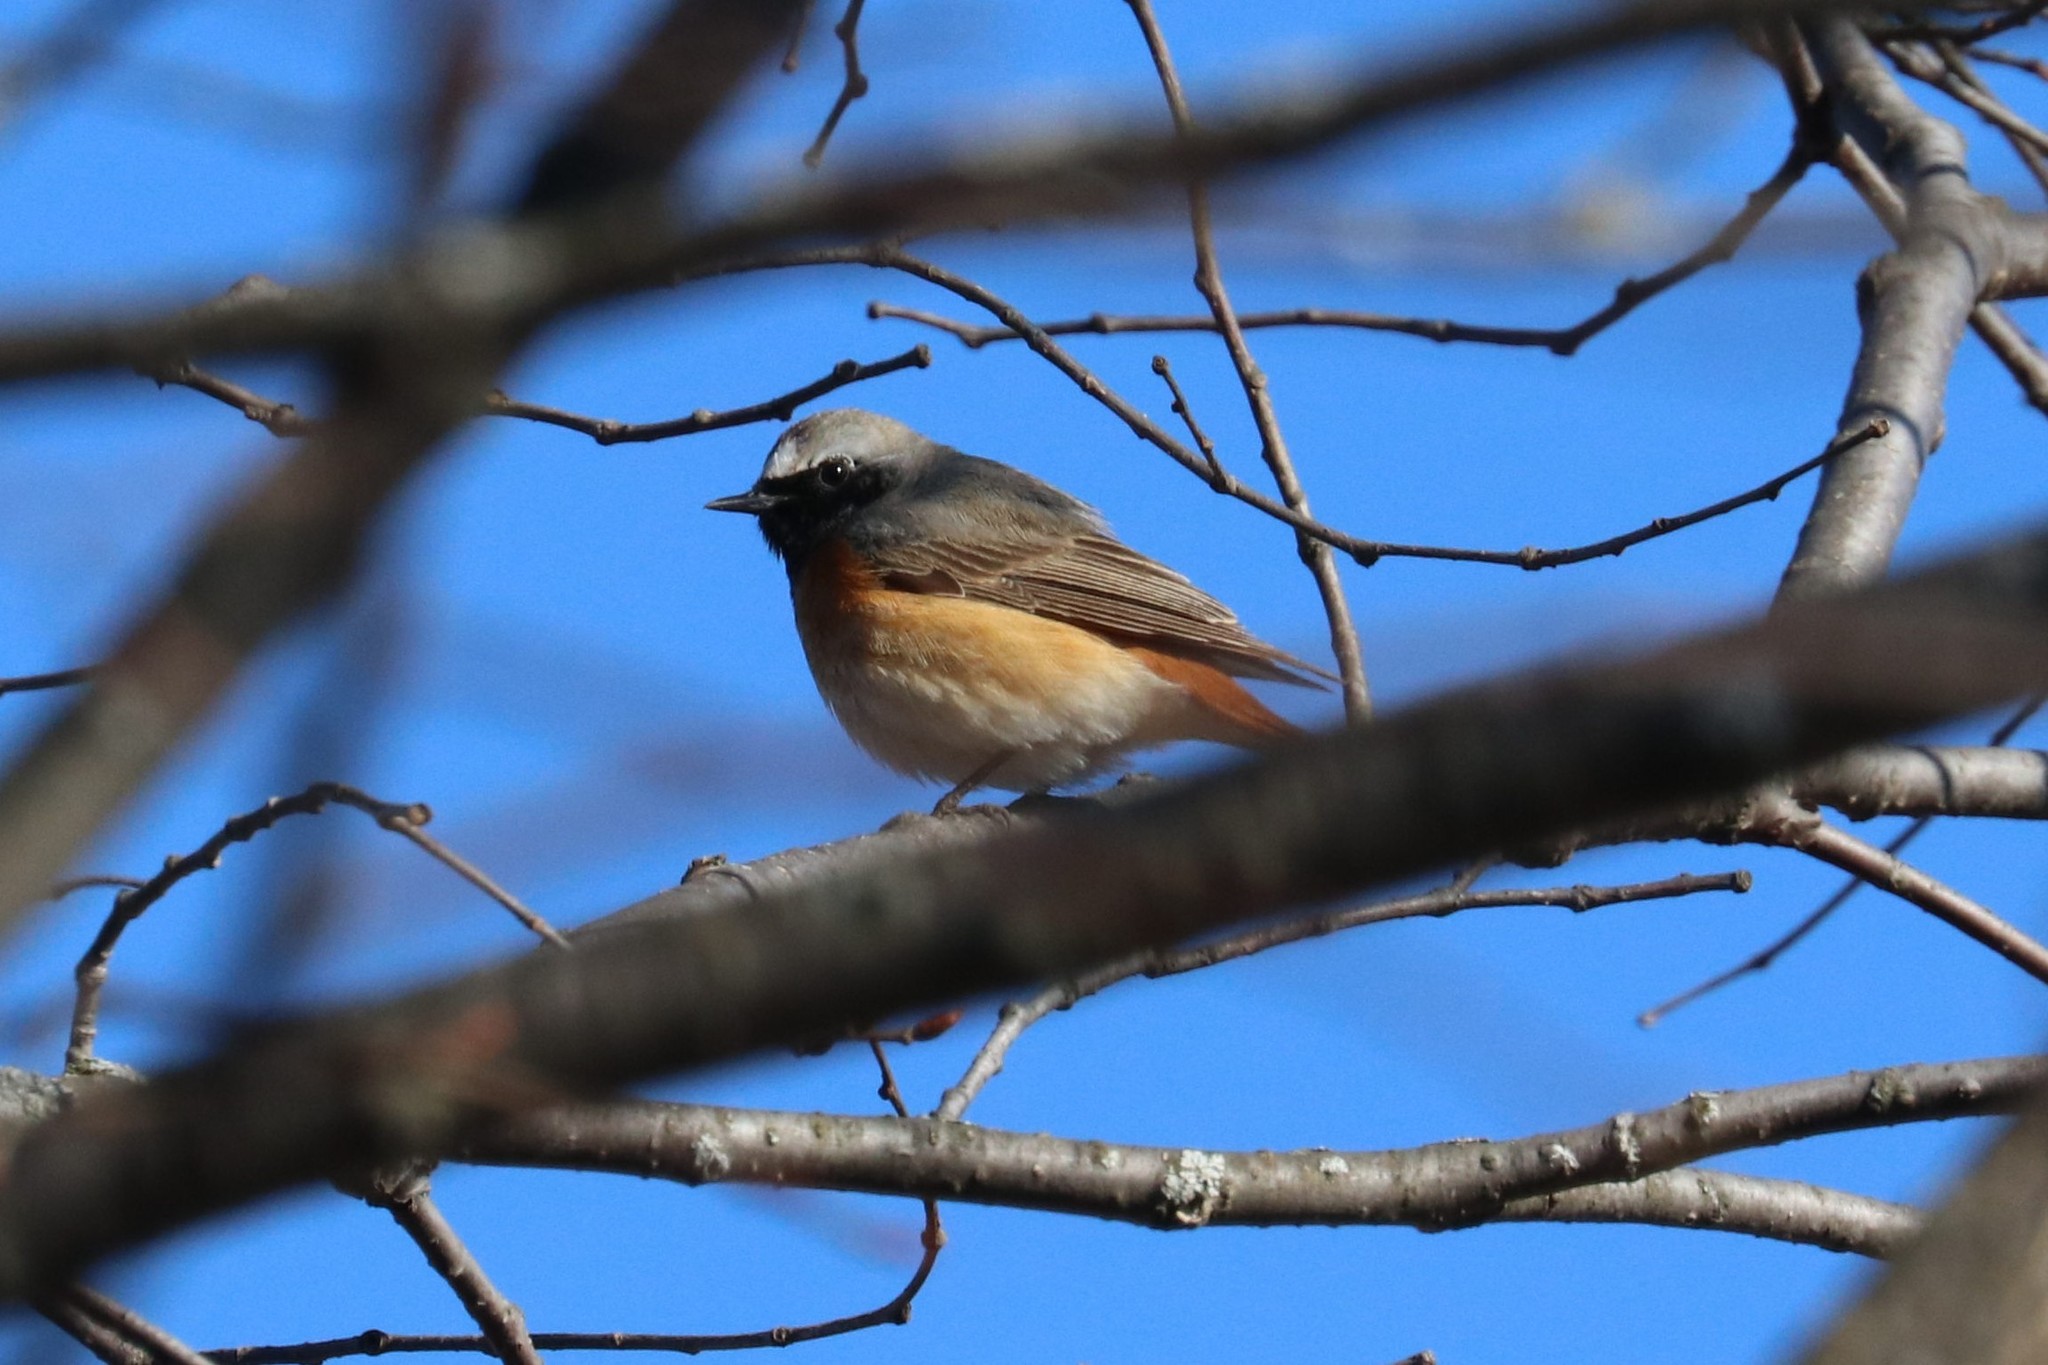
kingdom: Animalia
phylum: Chordata
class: Aves
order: Passeriformes
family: Muscicapidae
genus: Phoenicurus
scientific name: Phoenicurus phoenicurus
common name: Common redstart
